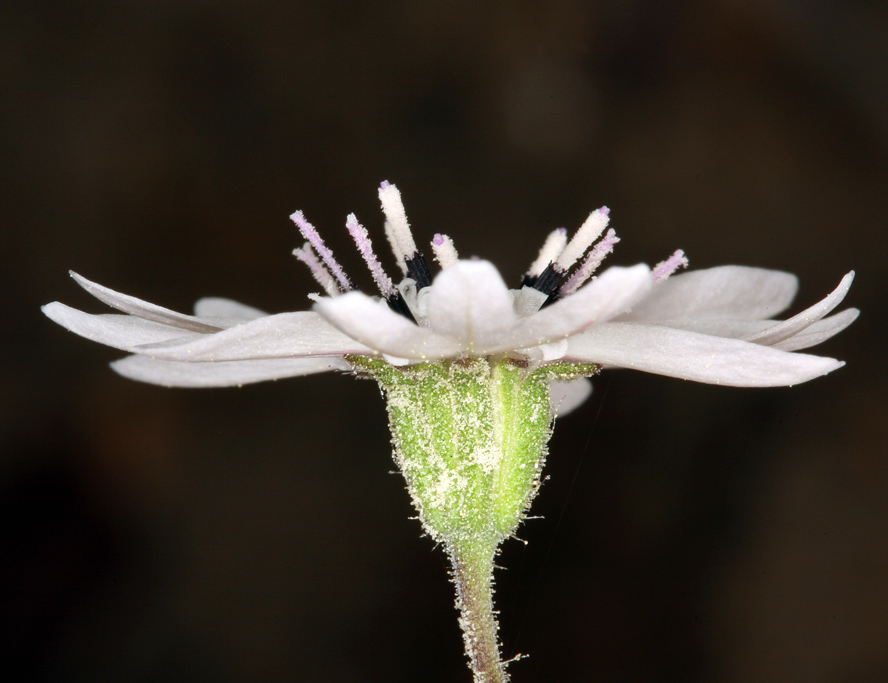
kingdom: Plantae
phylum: Tracheophyta
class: Magnoliopsida
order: Asterales
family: Asteraceae
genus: Blepharipappus
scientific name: Blepharipappus scaber
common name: Rough blepharipappus
